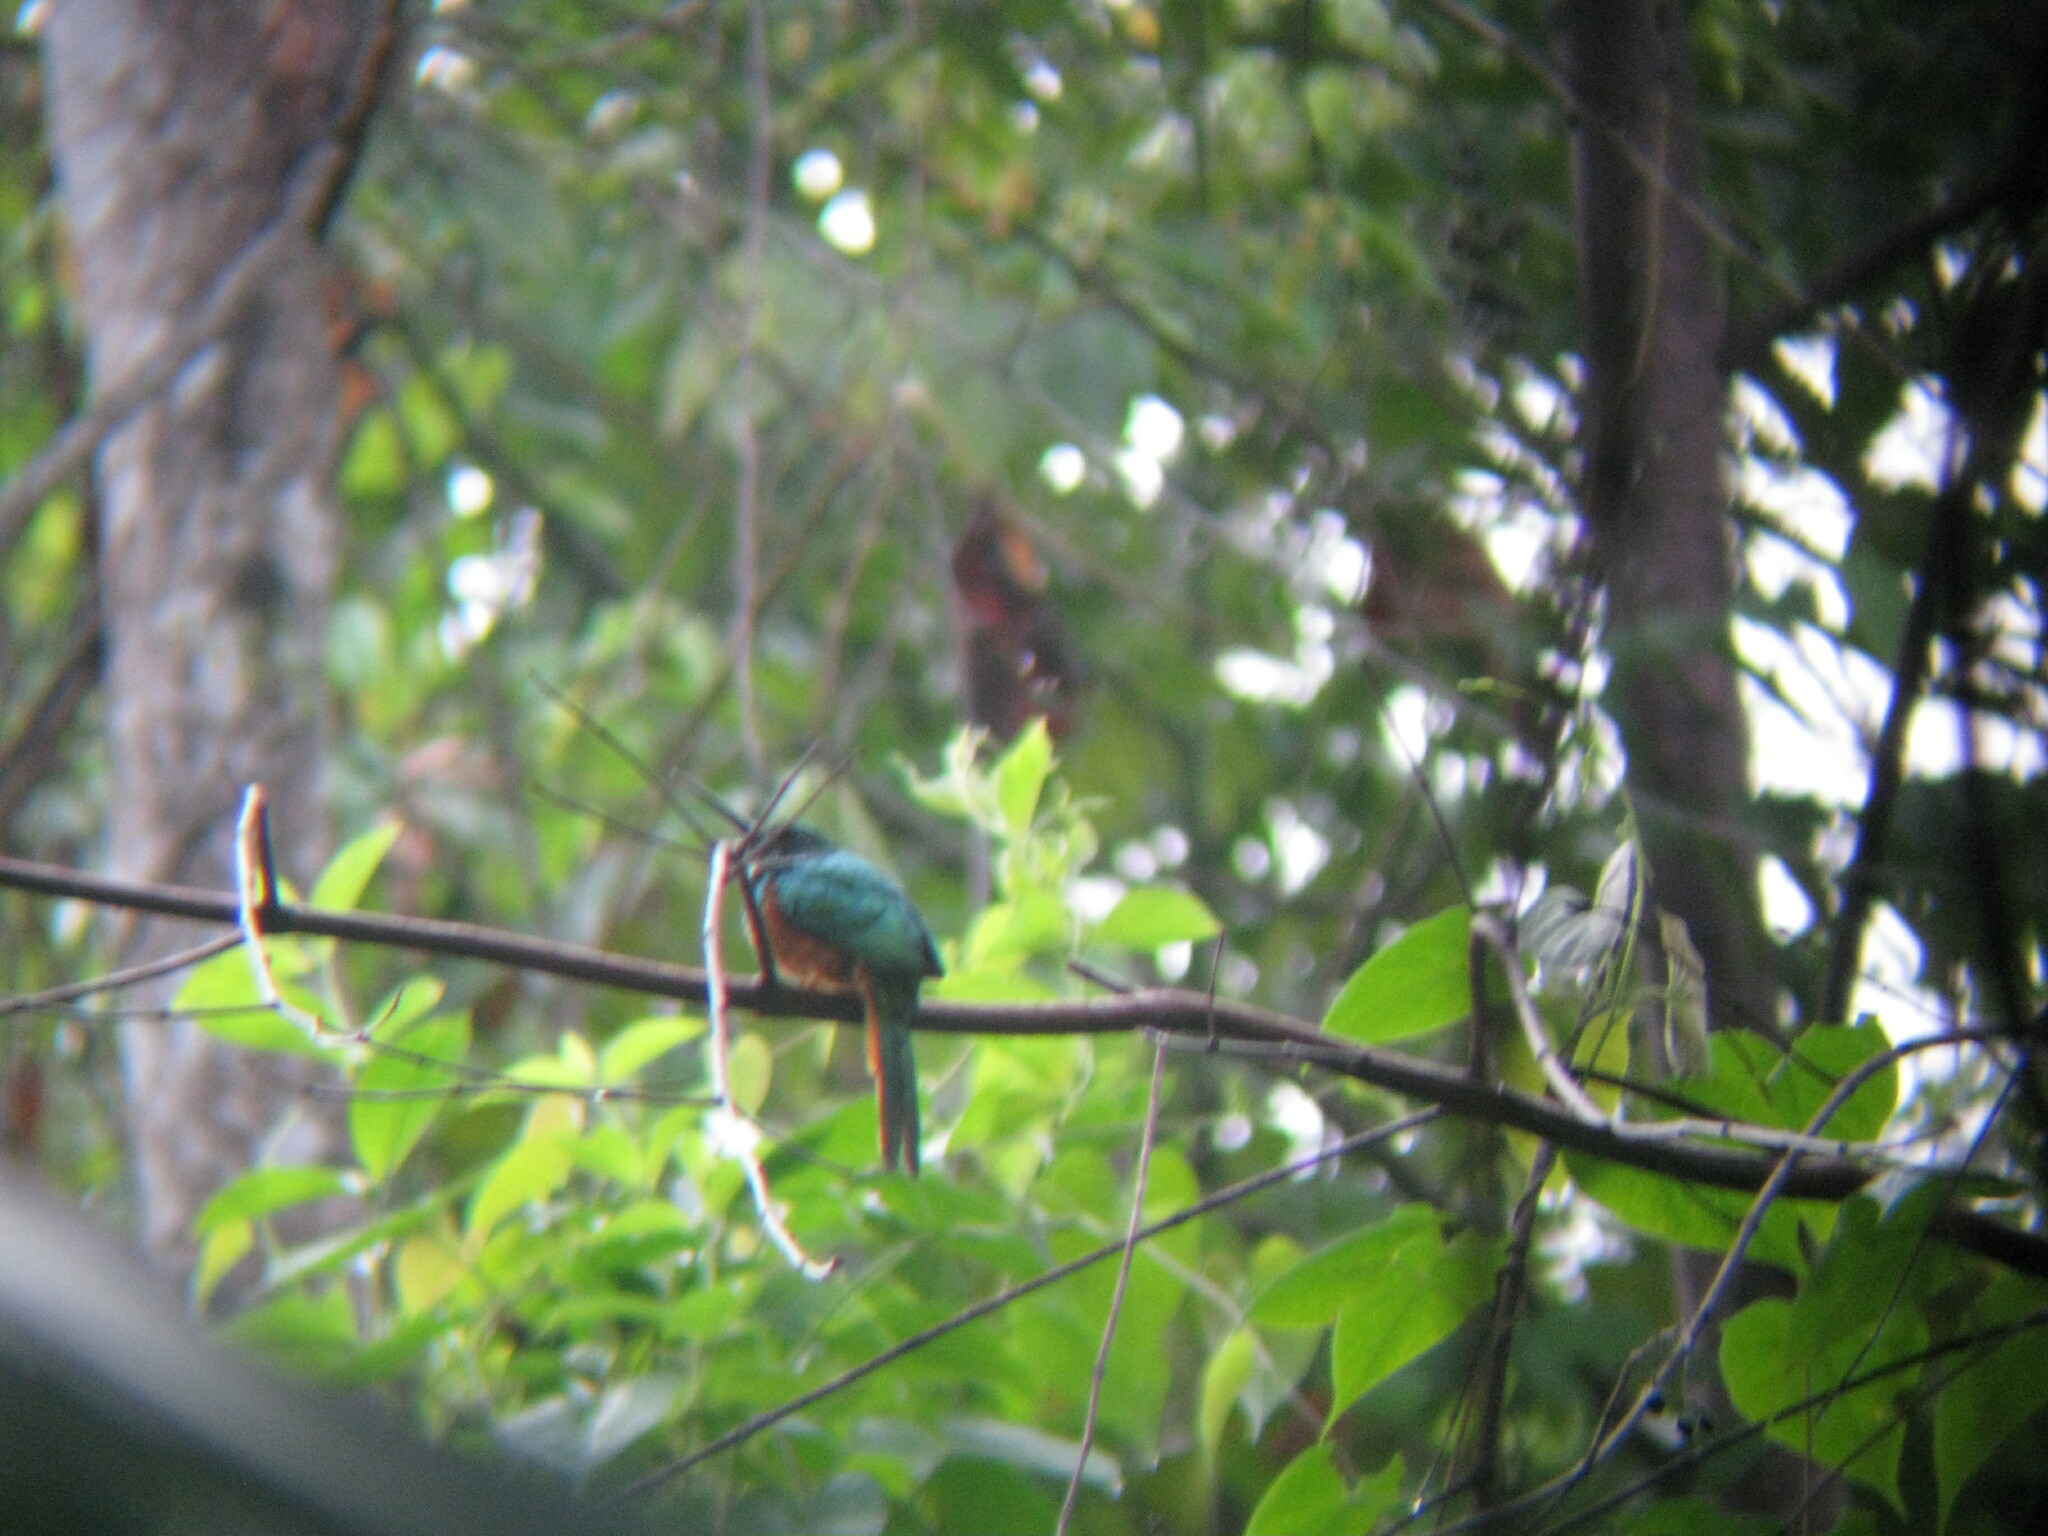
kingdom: Animalia
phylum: Chordata
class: Aves
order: Piciformes
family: Galbulidae
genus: Galbula
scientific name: Galbula ruficauda
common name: Rufous-tailed jacamar
